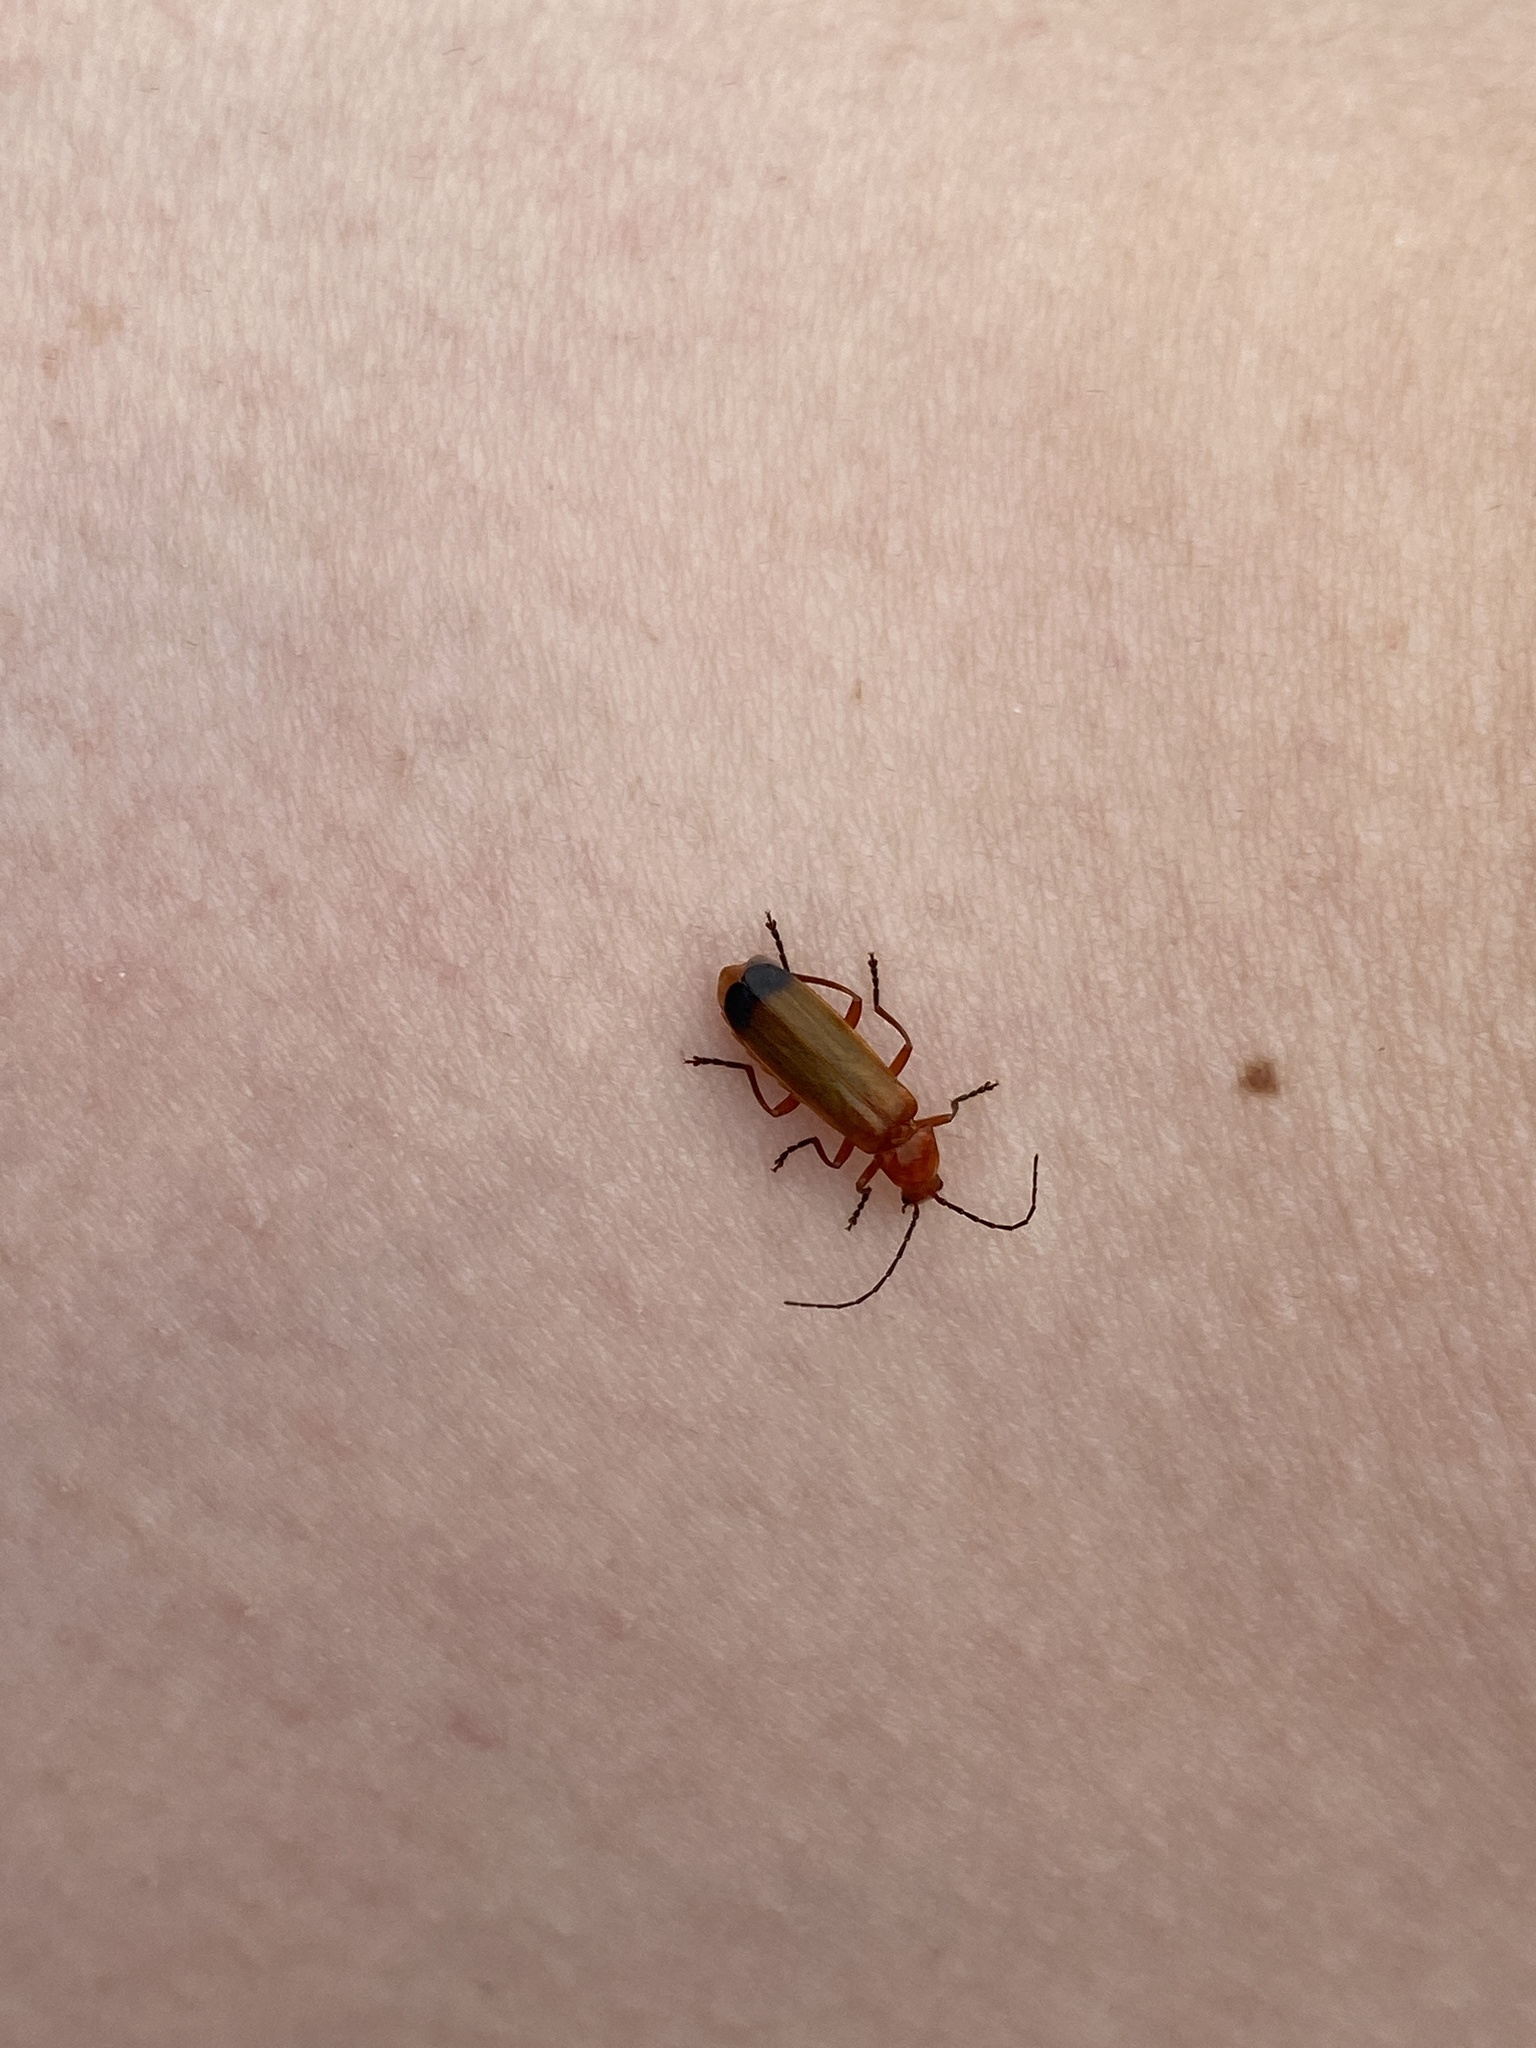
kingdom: Animalia
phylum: Arthropoda
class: Insecta
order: Coleoptera
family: Cantharidae
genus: Rhagonycha
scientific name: Rhagonycha fulva
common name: Common red soldier beetle
